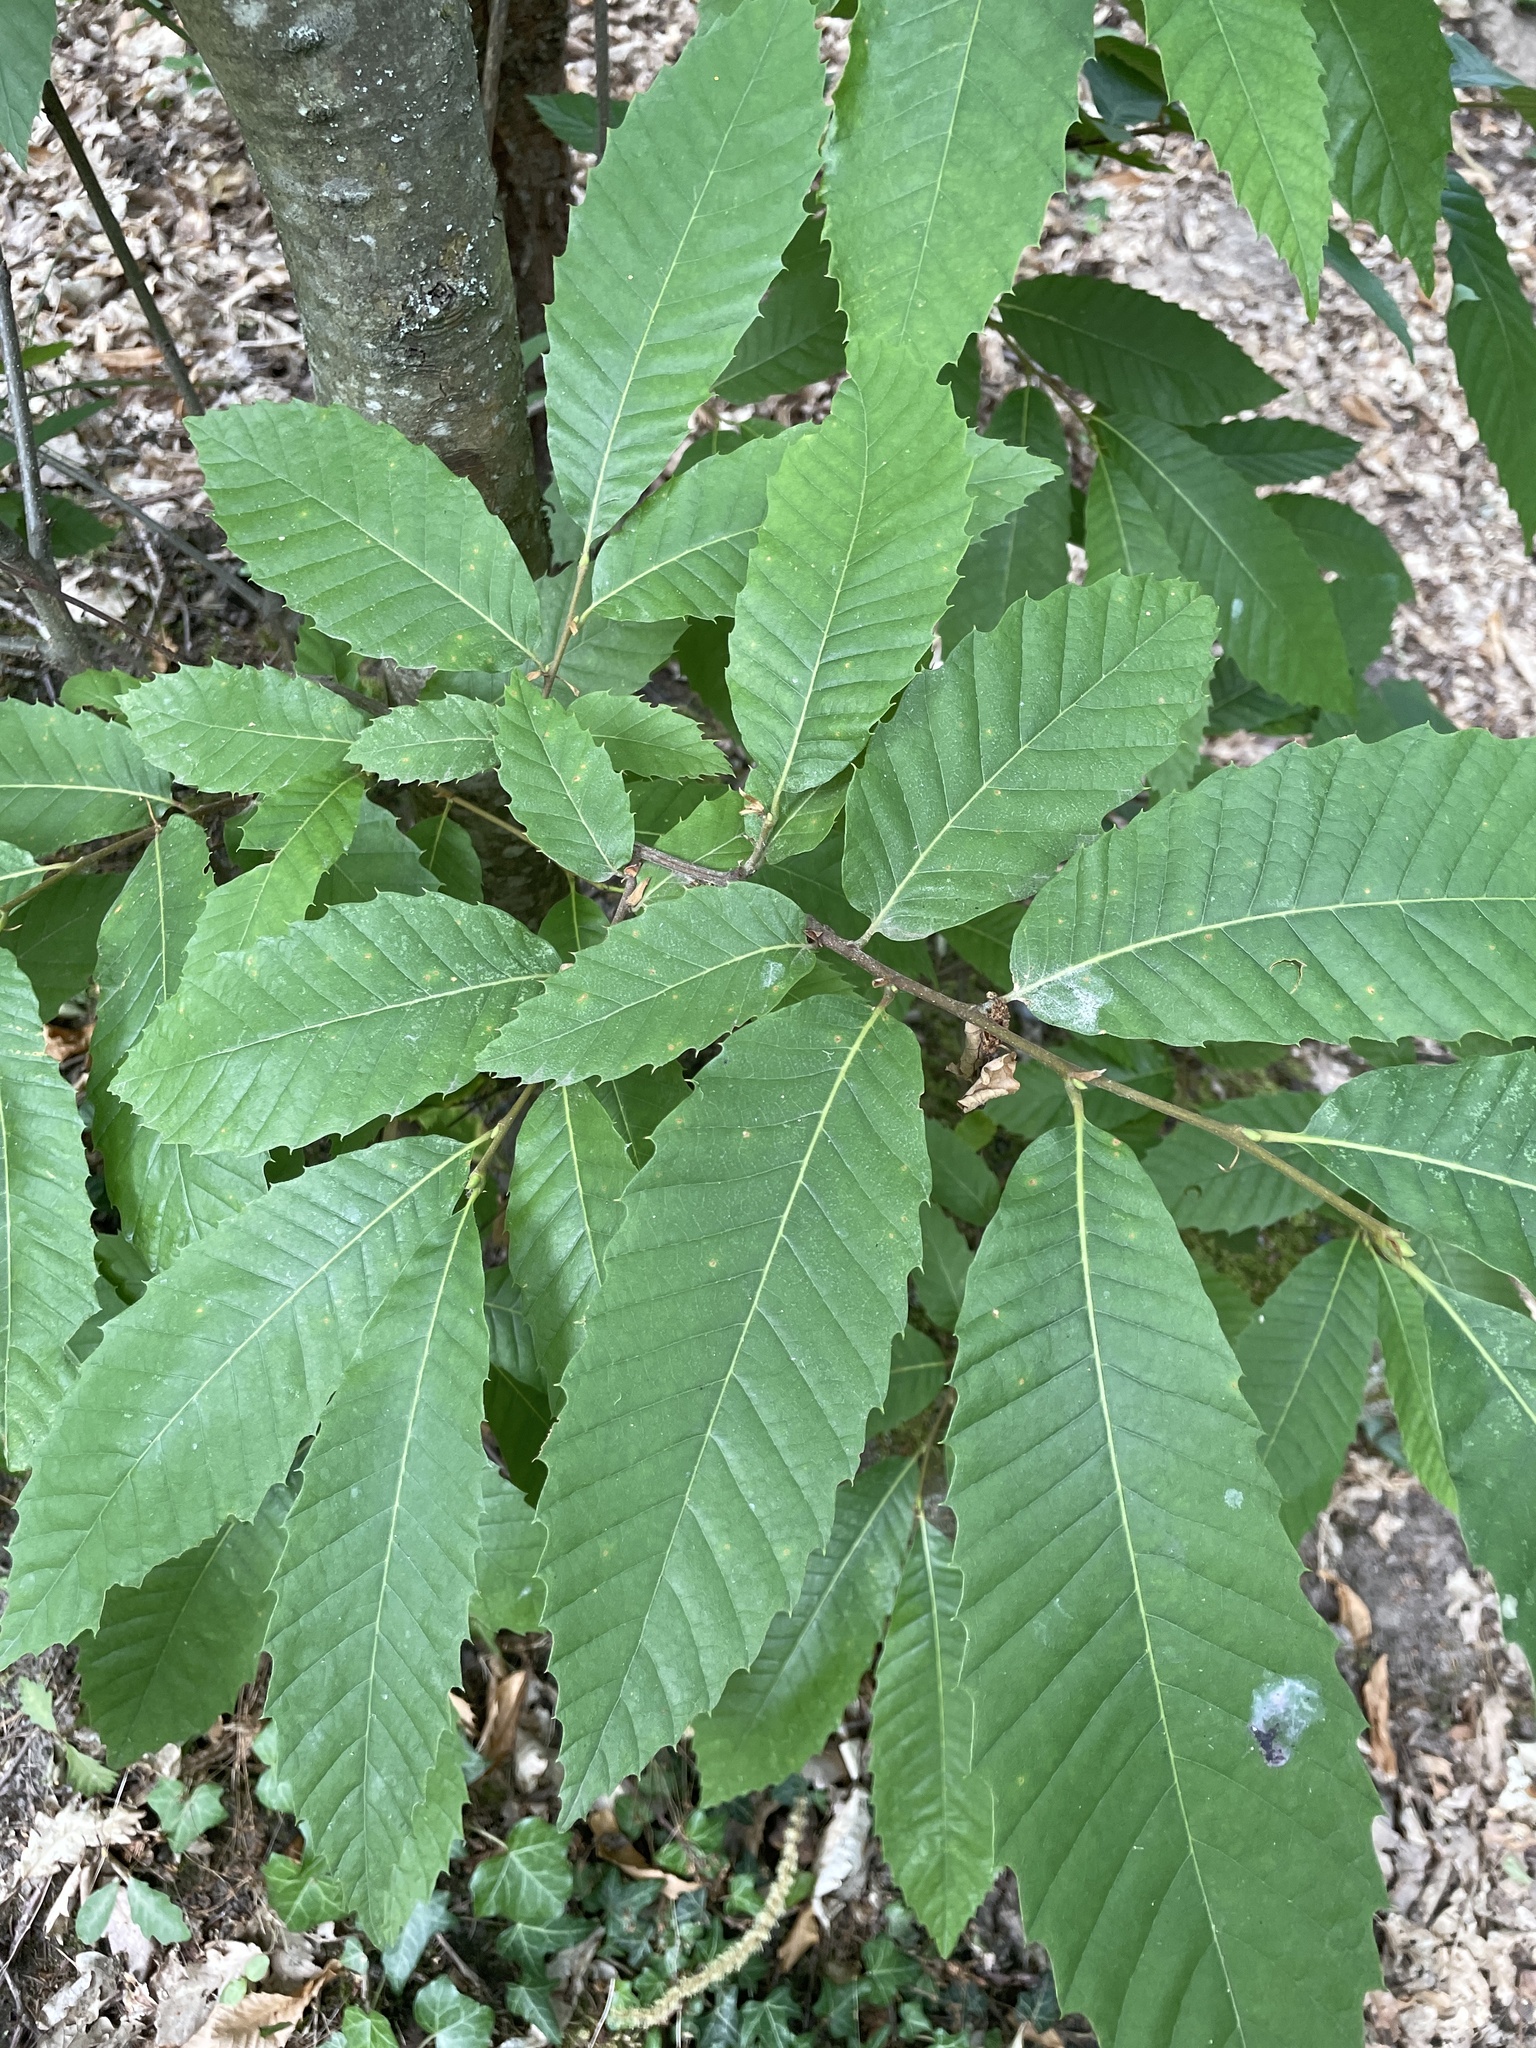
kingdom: Plantae
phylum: Tracheophyta
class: Magnoliopsida
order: Fagales
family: Fagaceae
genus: Castanea
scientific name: Castanea sativa
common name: Sweet chestnut
